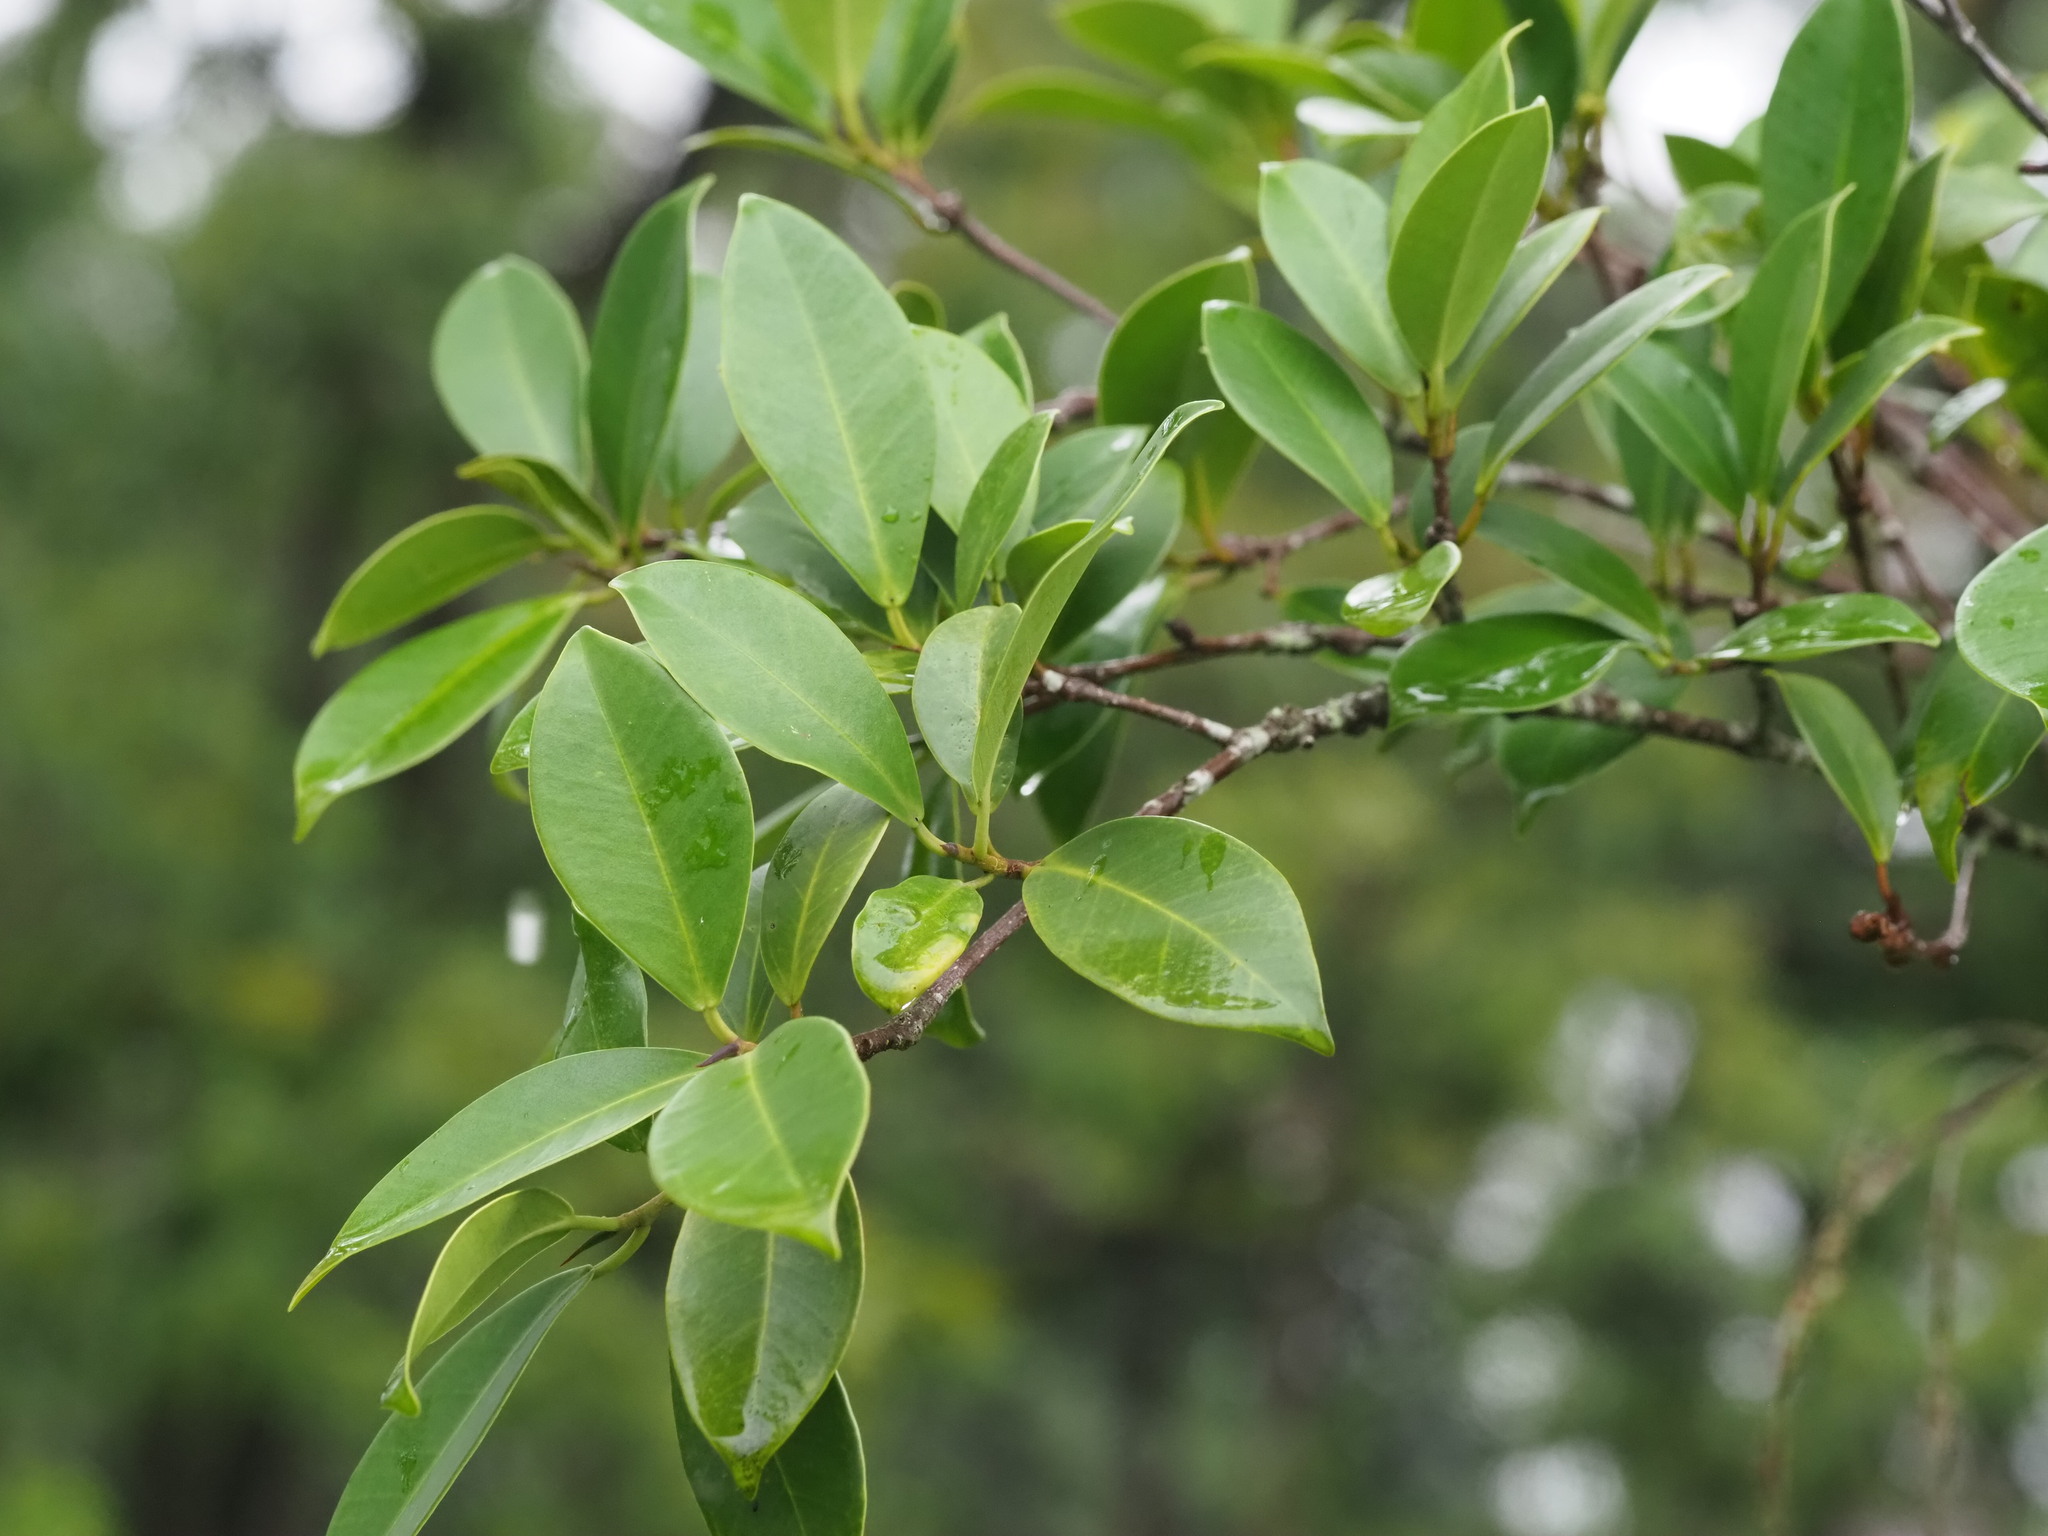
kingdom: Plantae
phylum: Tracheophyta
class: Magnoliopsida
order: Rosales
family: Moraceae
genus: Ficus
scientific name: Ficus microcarpa
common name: Chinese banyan
